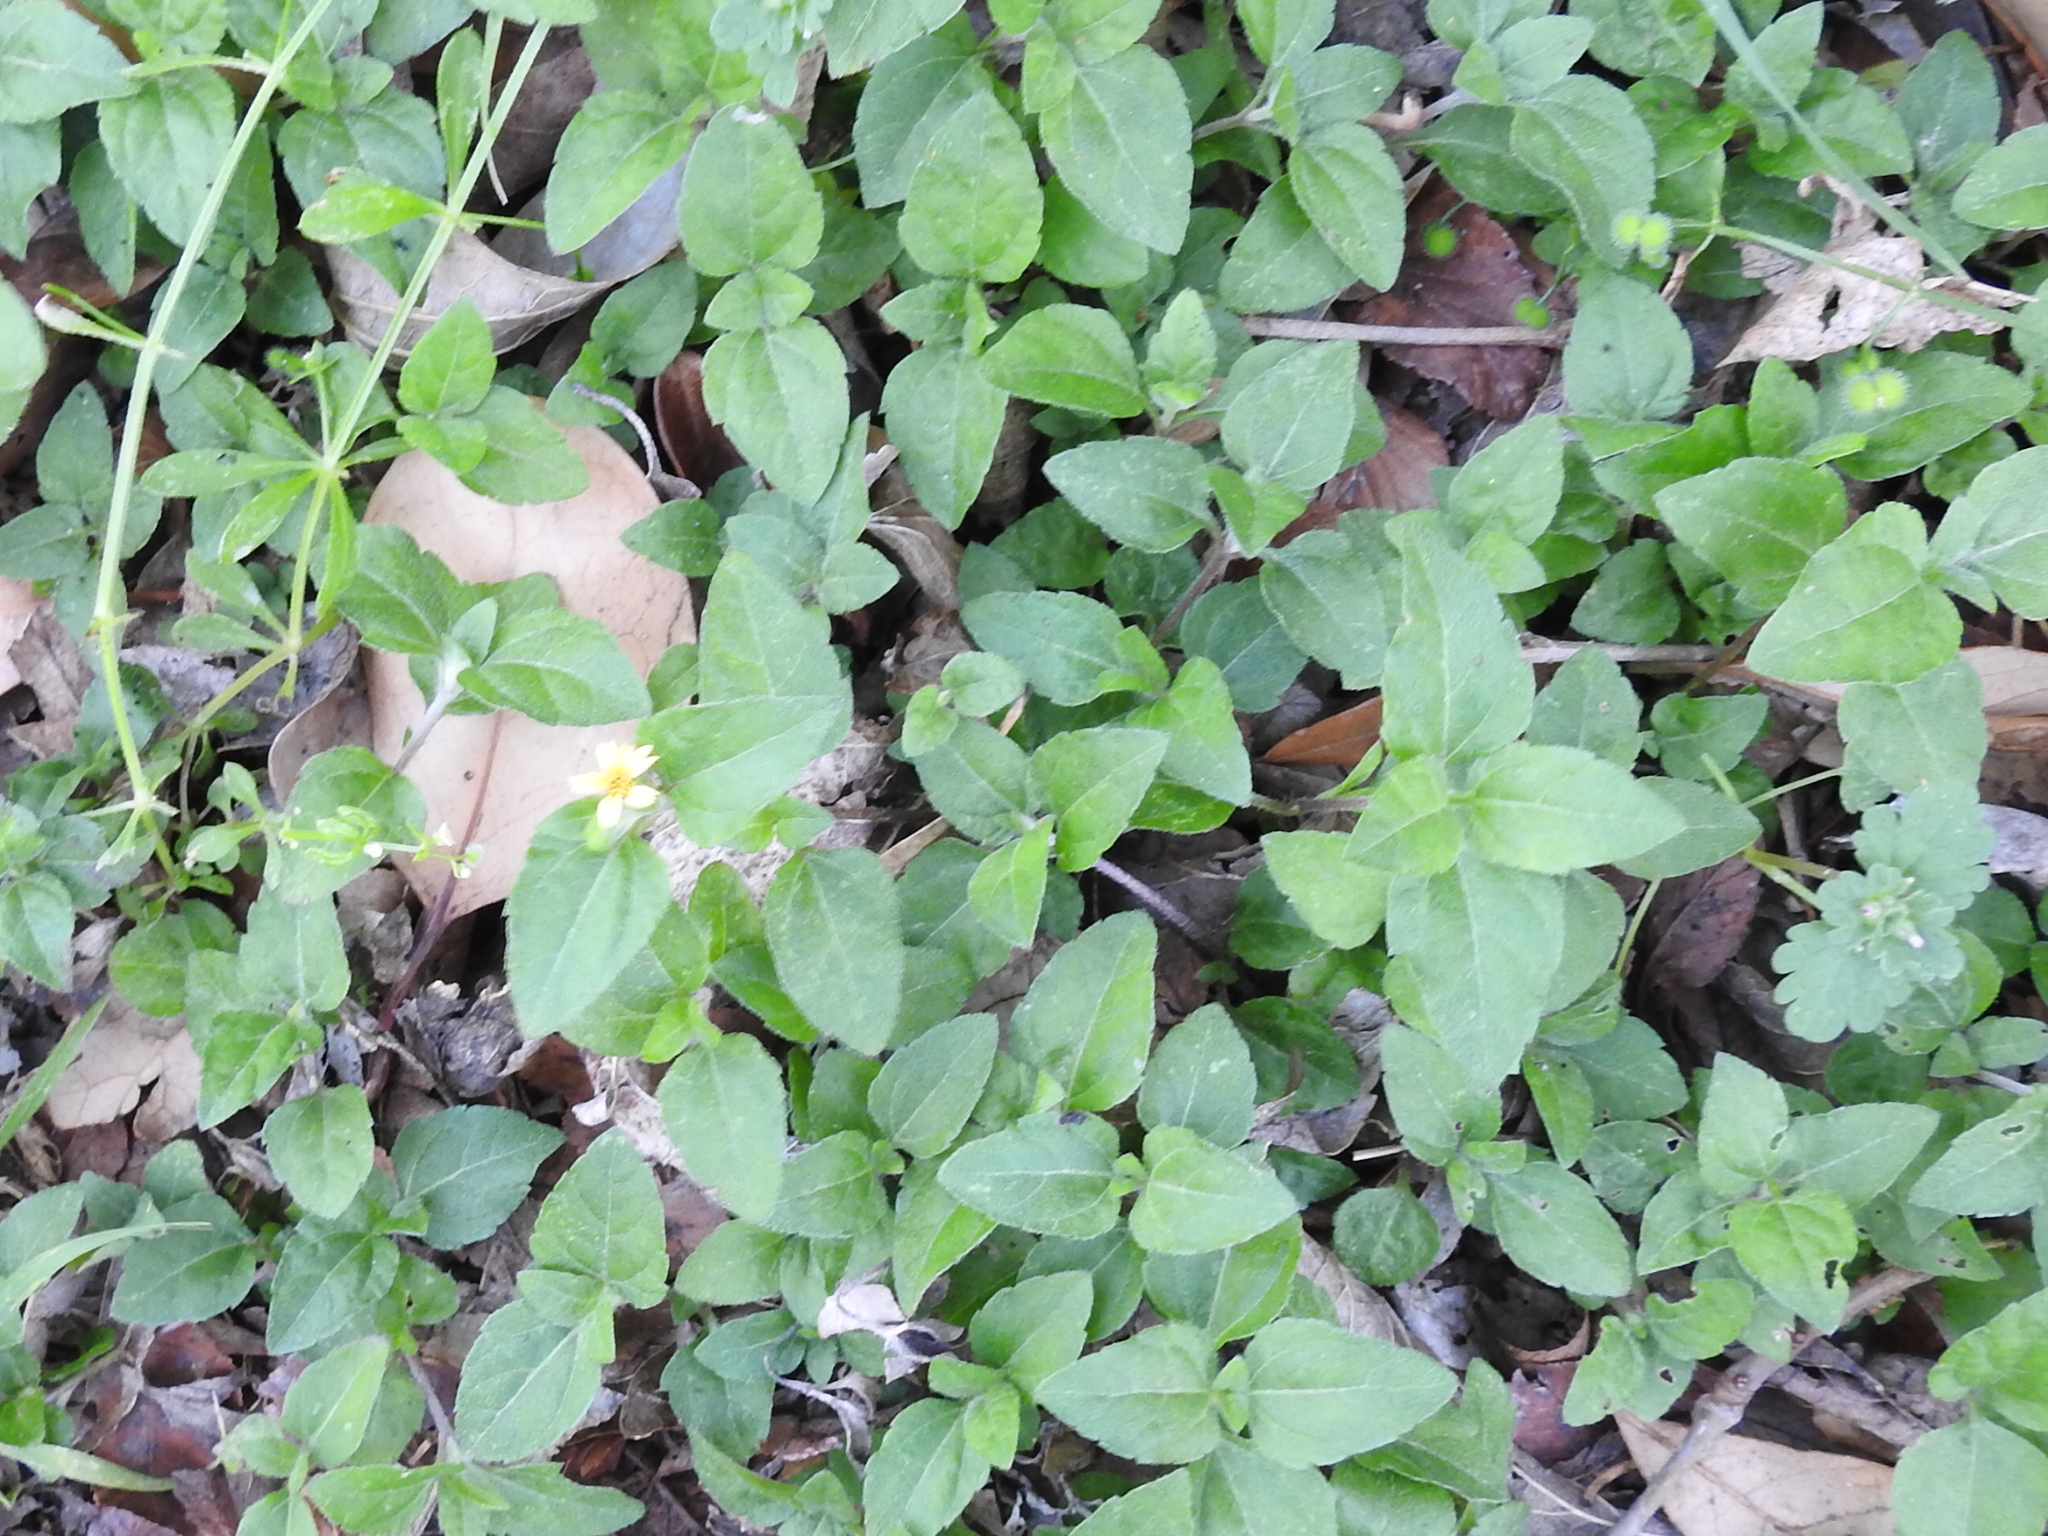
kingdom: Plantae
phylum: Tracheophyta
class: Magnoliopsida
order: Asterales
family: Asteraceae
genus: Calyptocarpus
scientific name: Calyptocarpus vialis
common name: Straggler daisy
